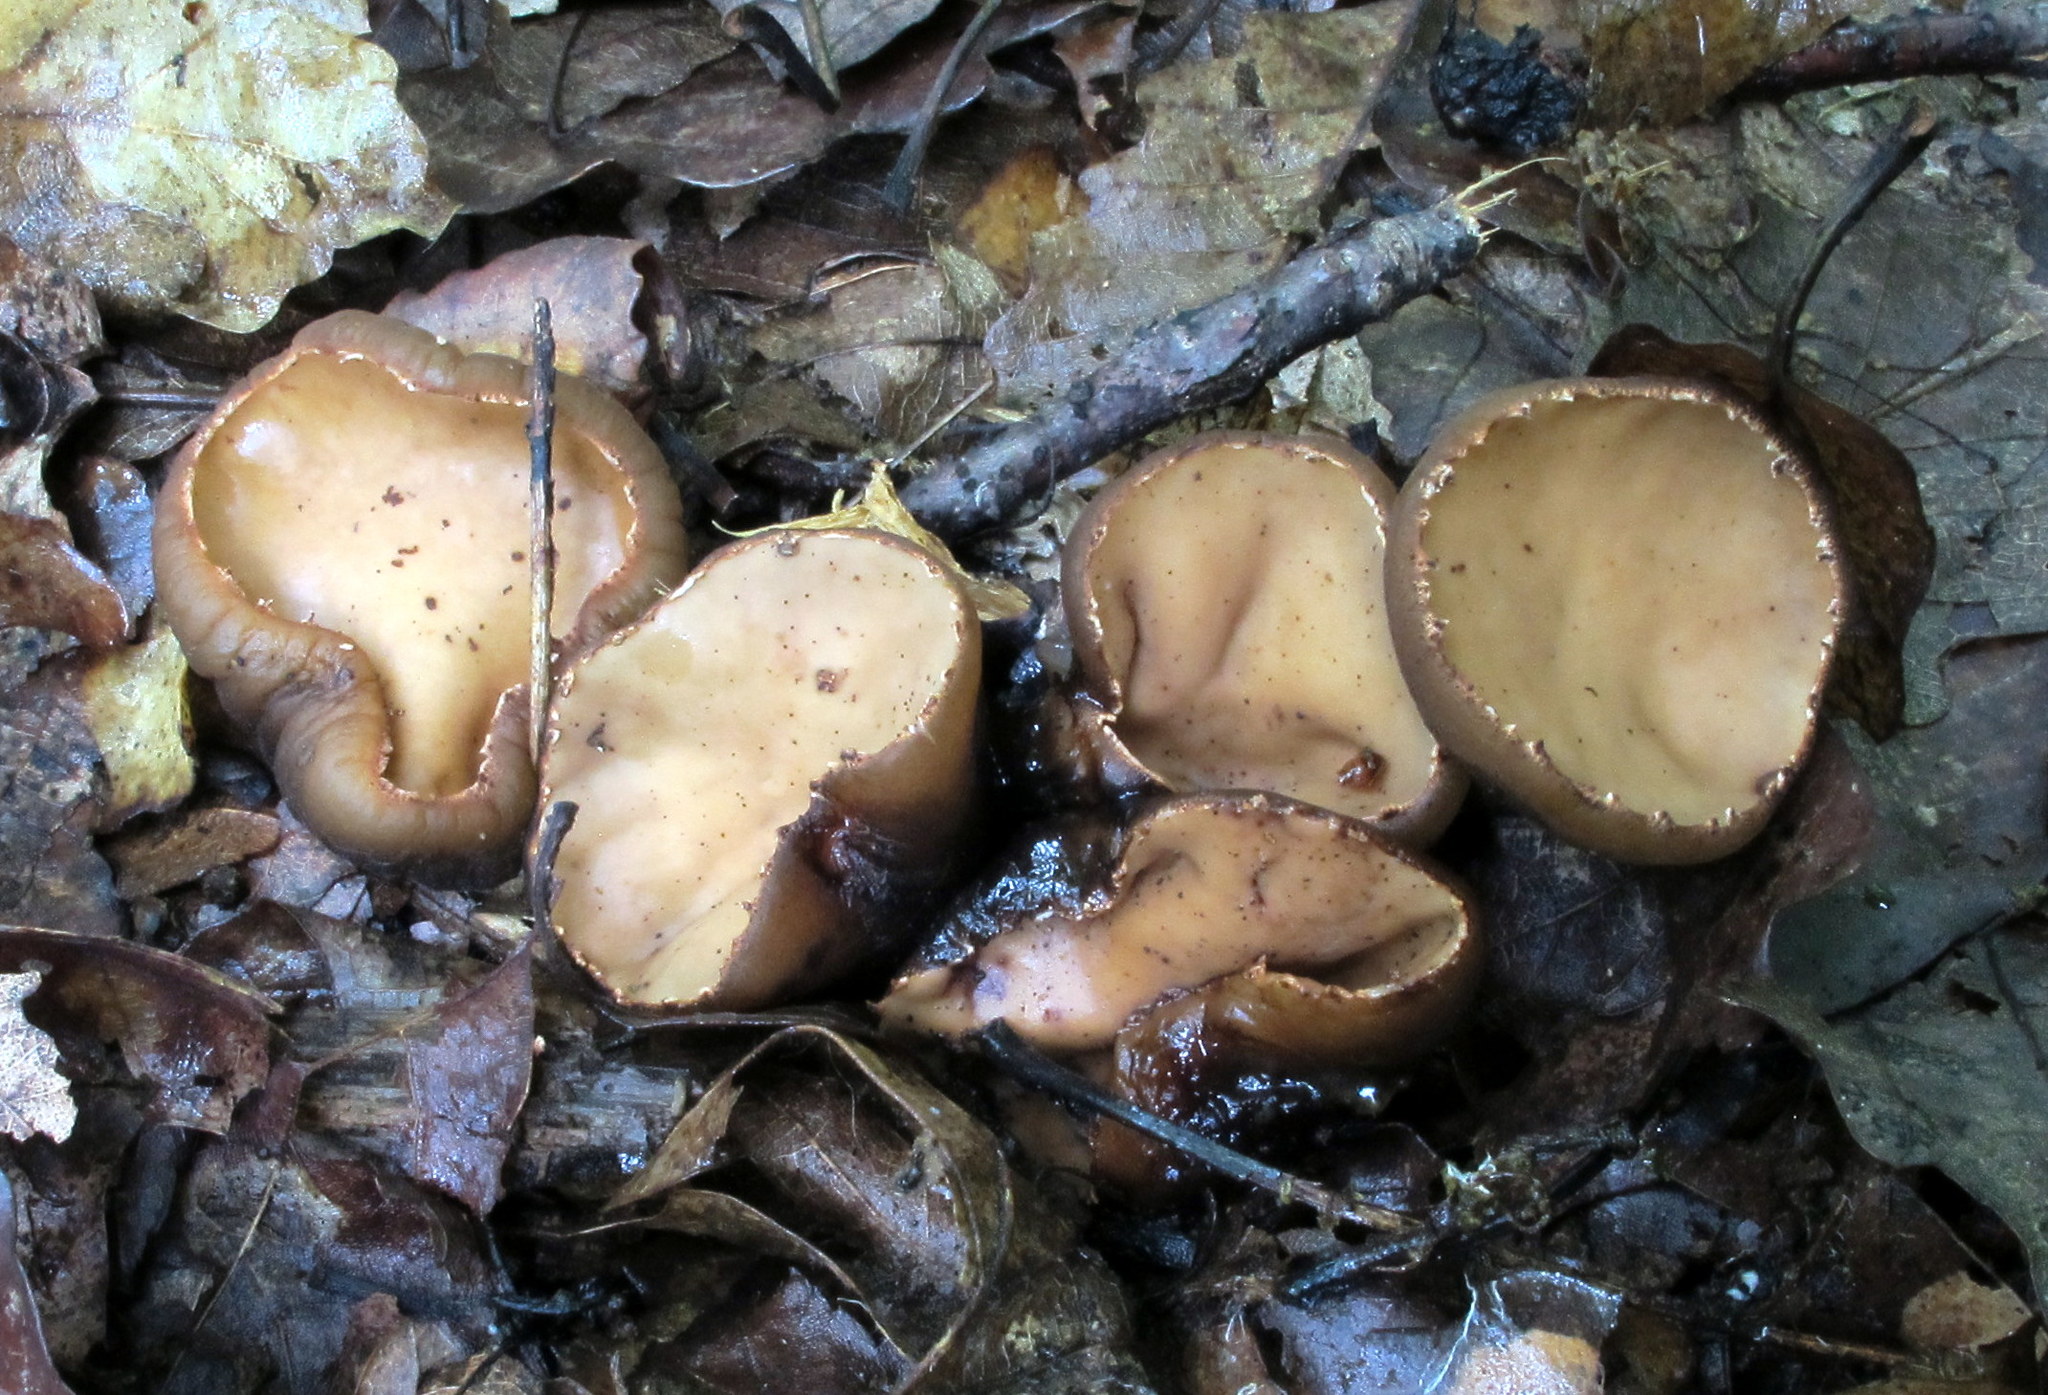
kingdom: Fungi
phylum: Ascomycota
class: Pezizomycetes
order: Pezizales
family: Sarcosomataceae
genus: Galiella
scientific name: Galiella rufa
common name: Hairy rubber cup
